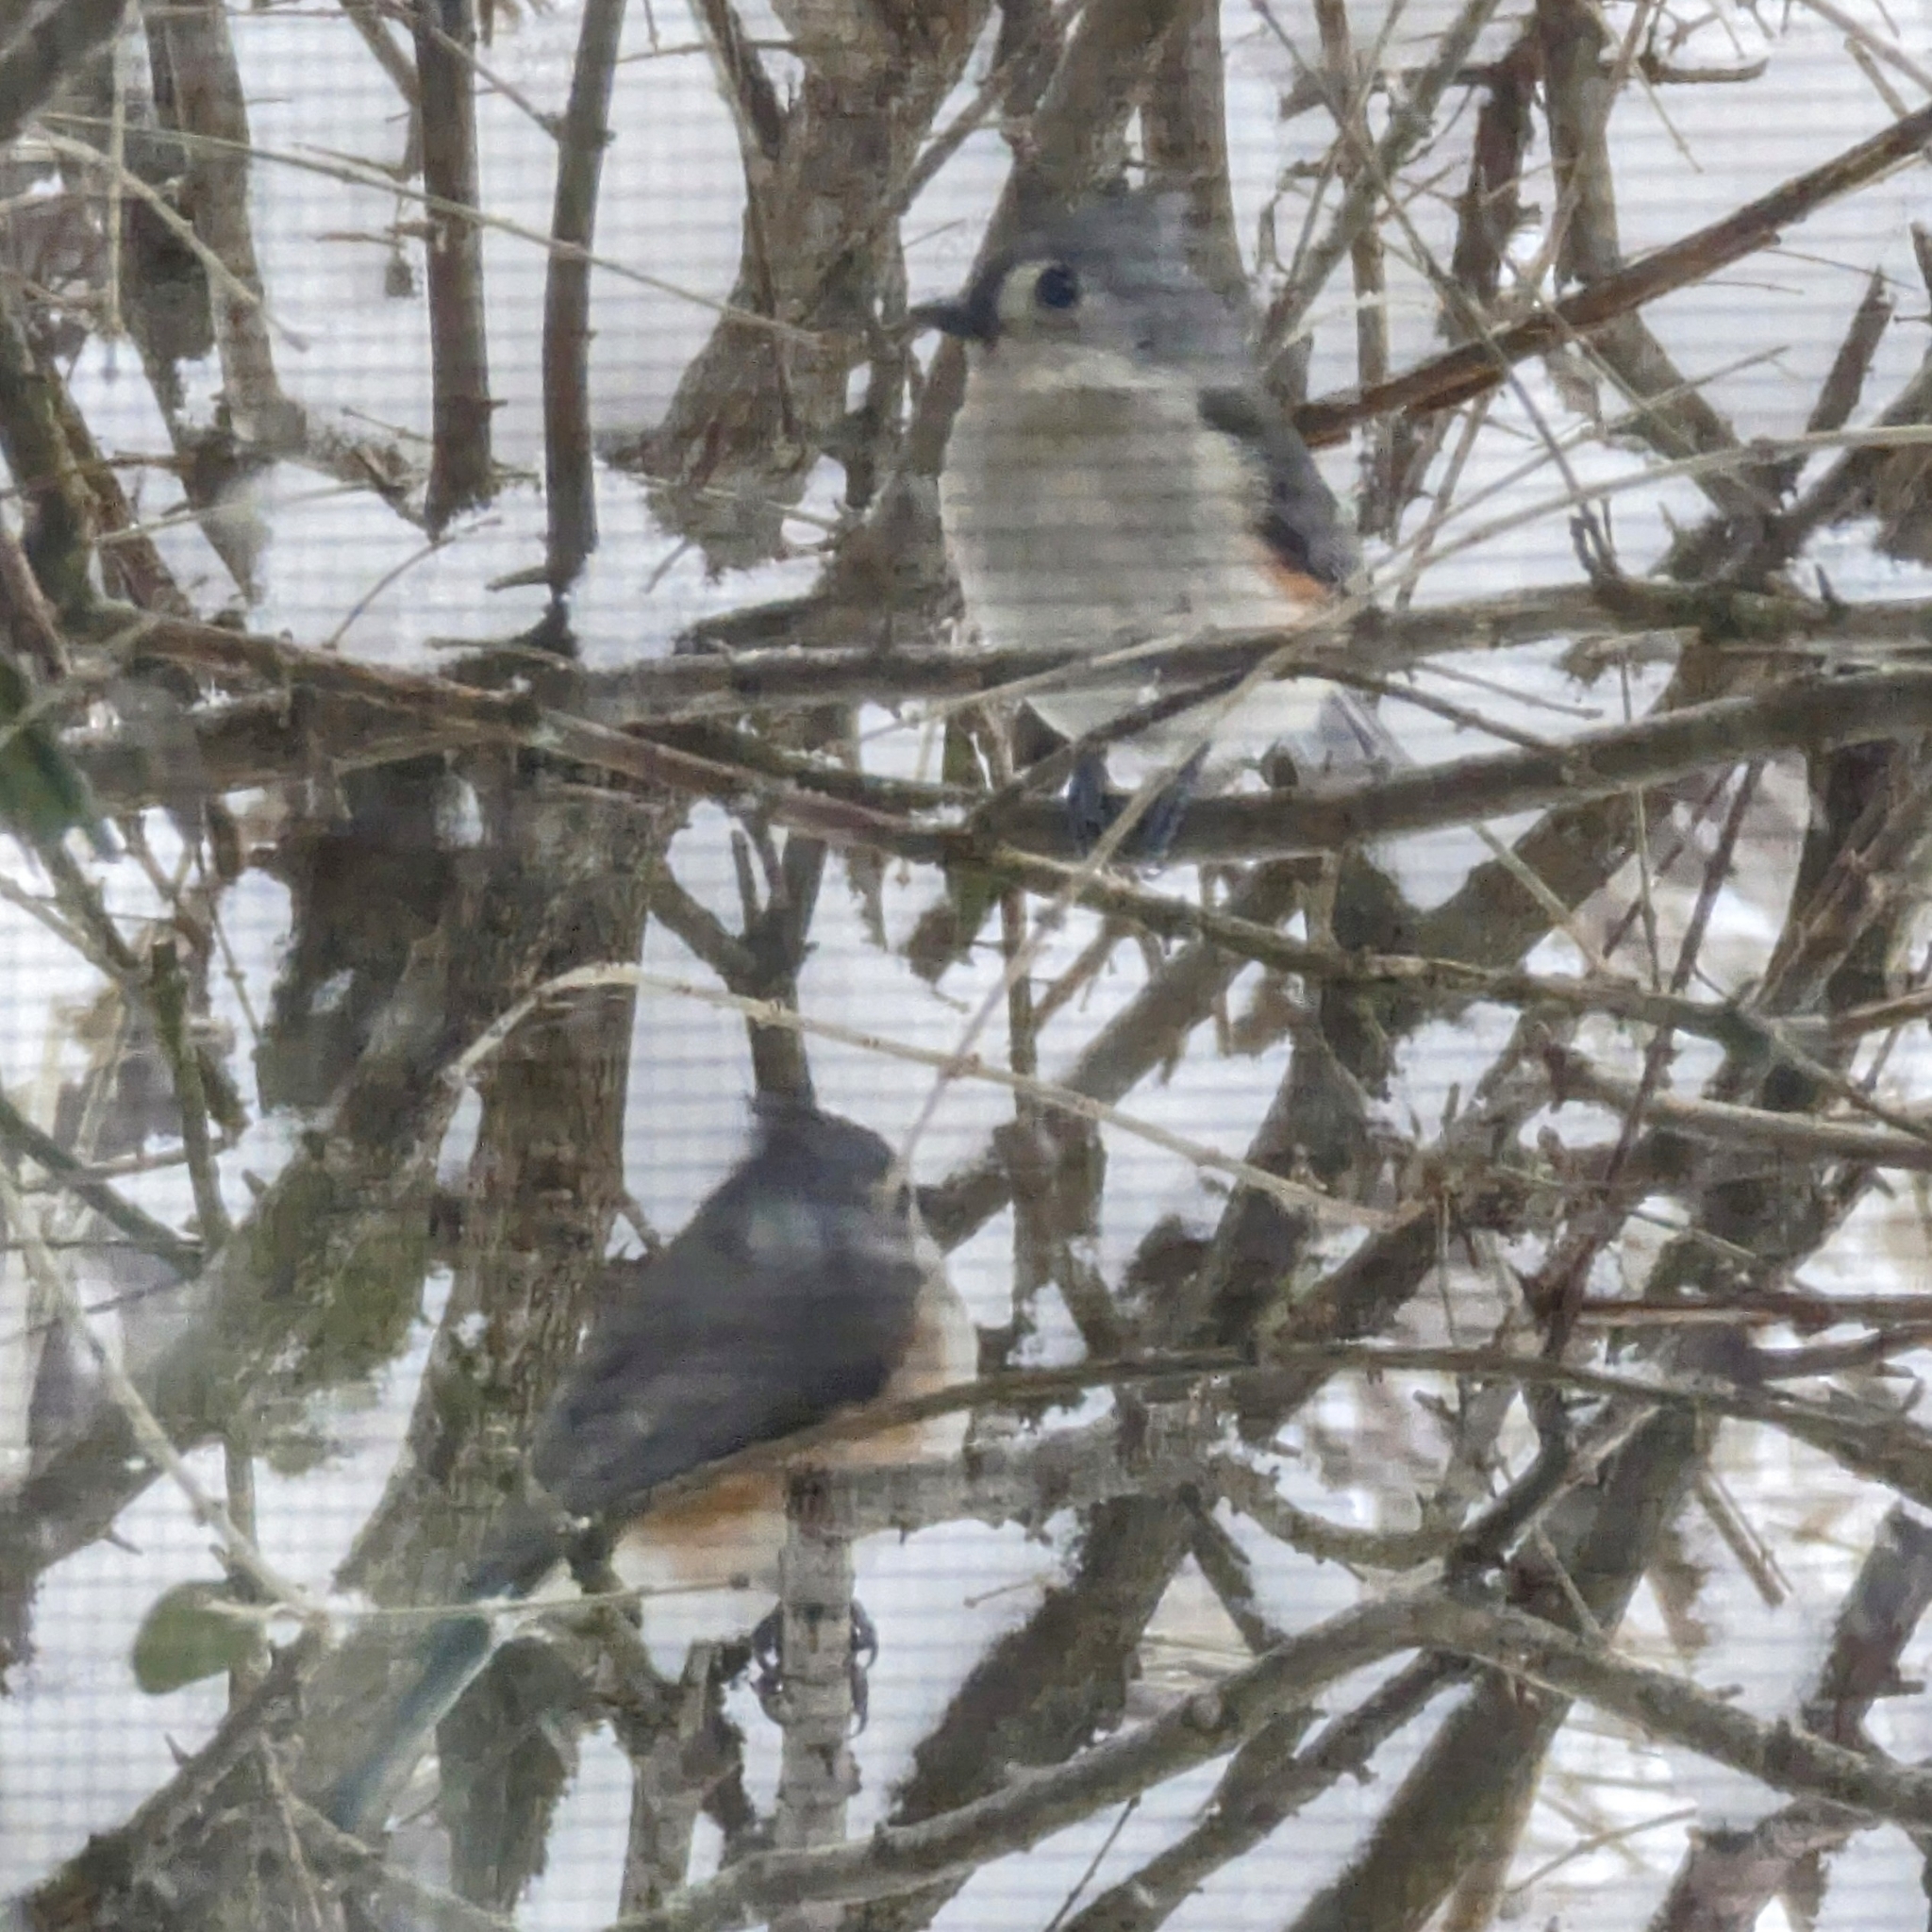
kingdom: Animalia
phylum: Chordata
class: Aves
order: Passeriformes
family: Paridae
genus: Baeolophus
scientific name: Baeolophus bicolor
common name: Tufted titmouse
